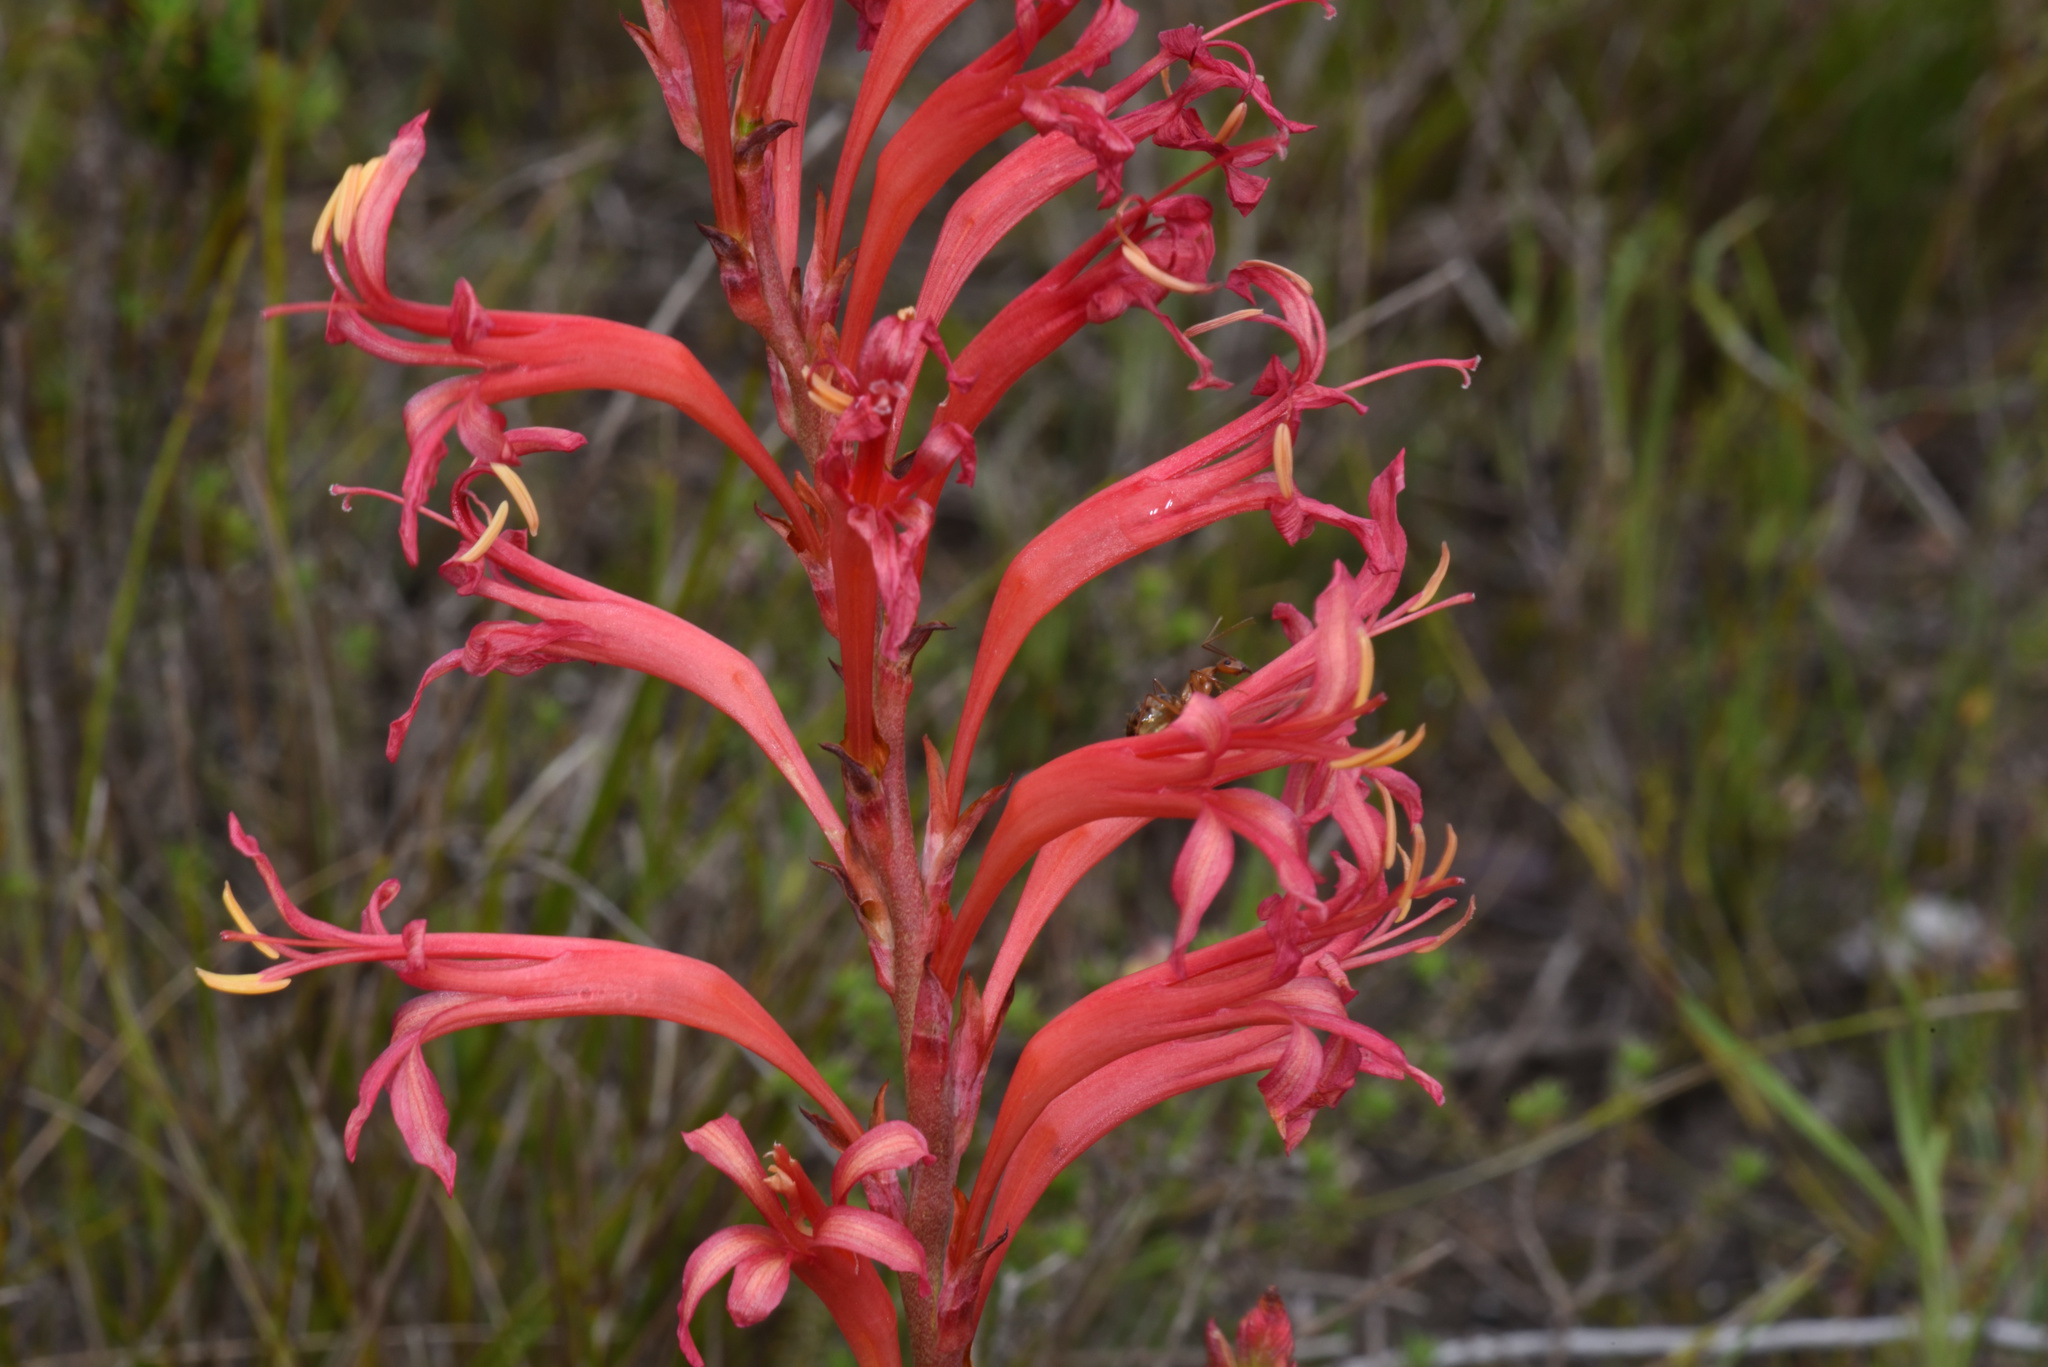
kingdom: Plantae
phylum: Tracheophyta
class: Liliopsida
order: Asparagales
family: Iridaceae
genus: Tritoniopsis
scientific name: Tritoniopsis antholyza
